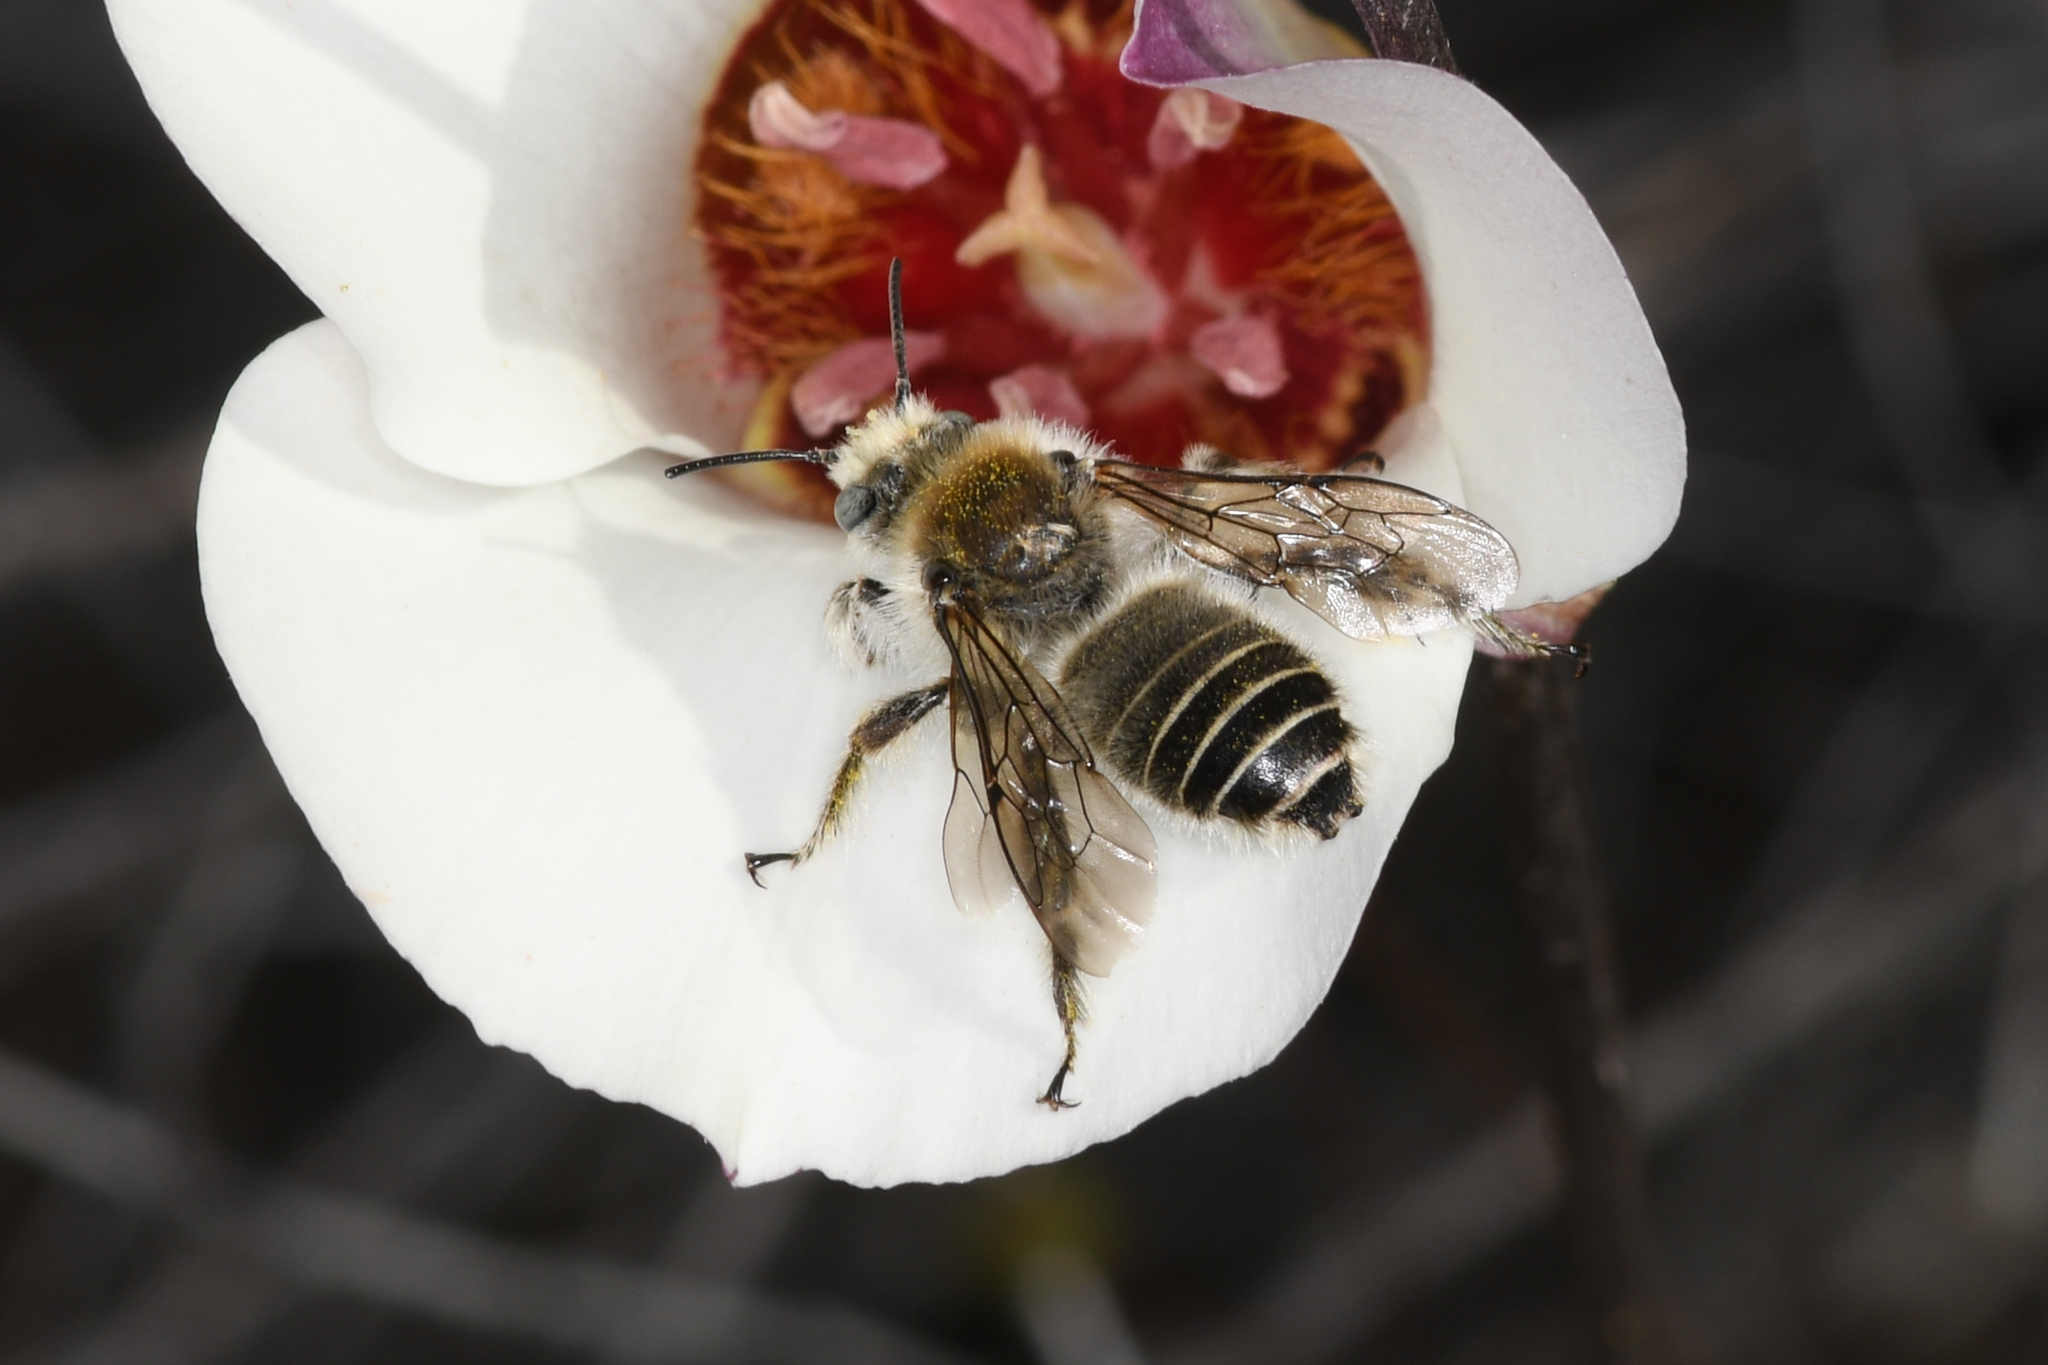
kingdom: Animalia
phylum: Arthropoda
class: Insecta
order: Hymenoptera
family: Apidae
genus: Diadasia
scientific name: Diadasia bituberculata
